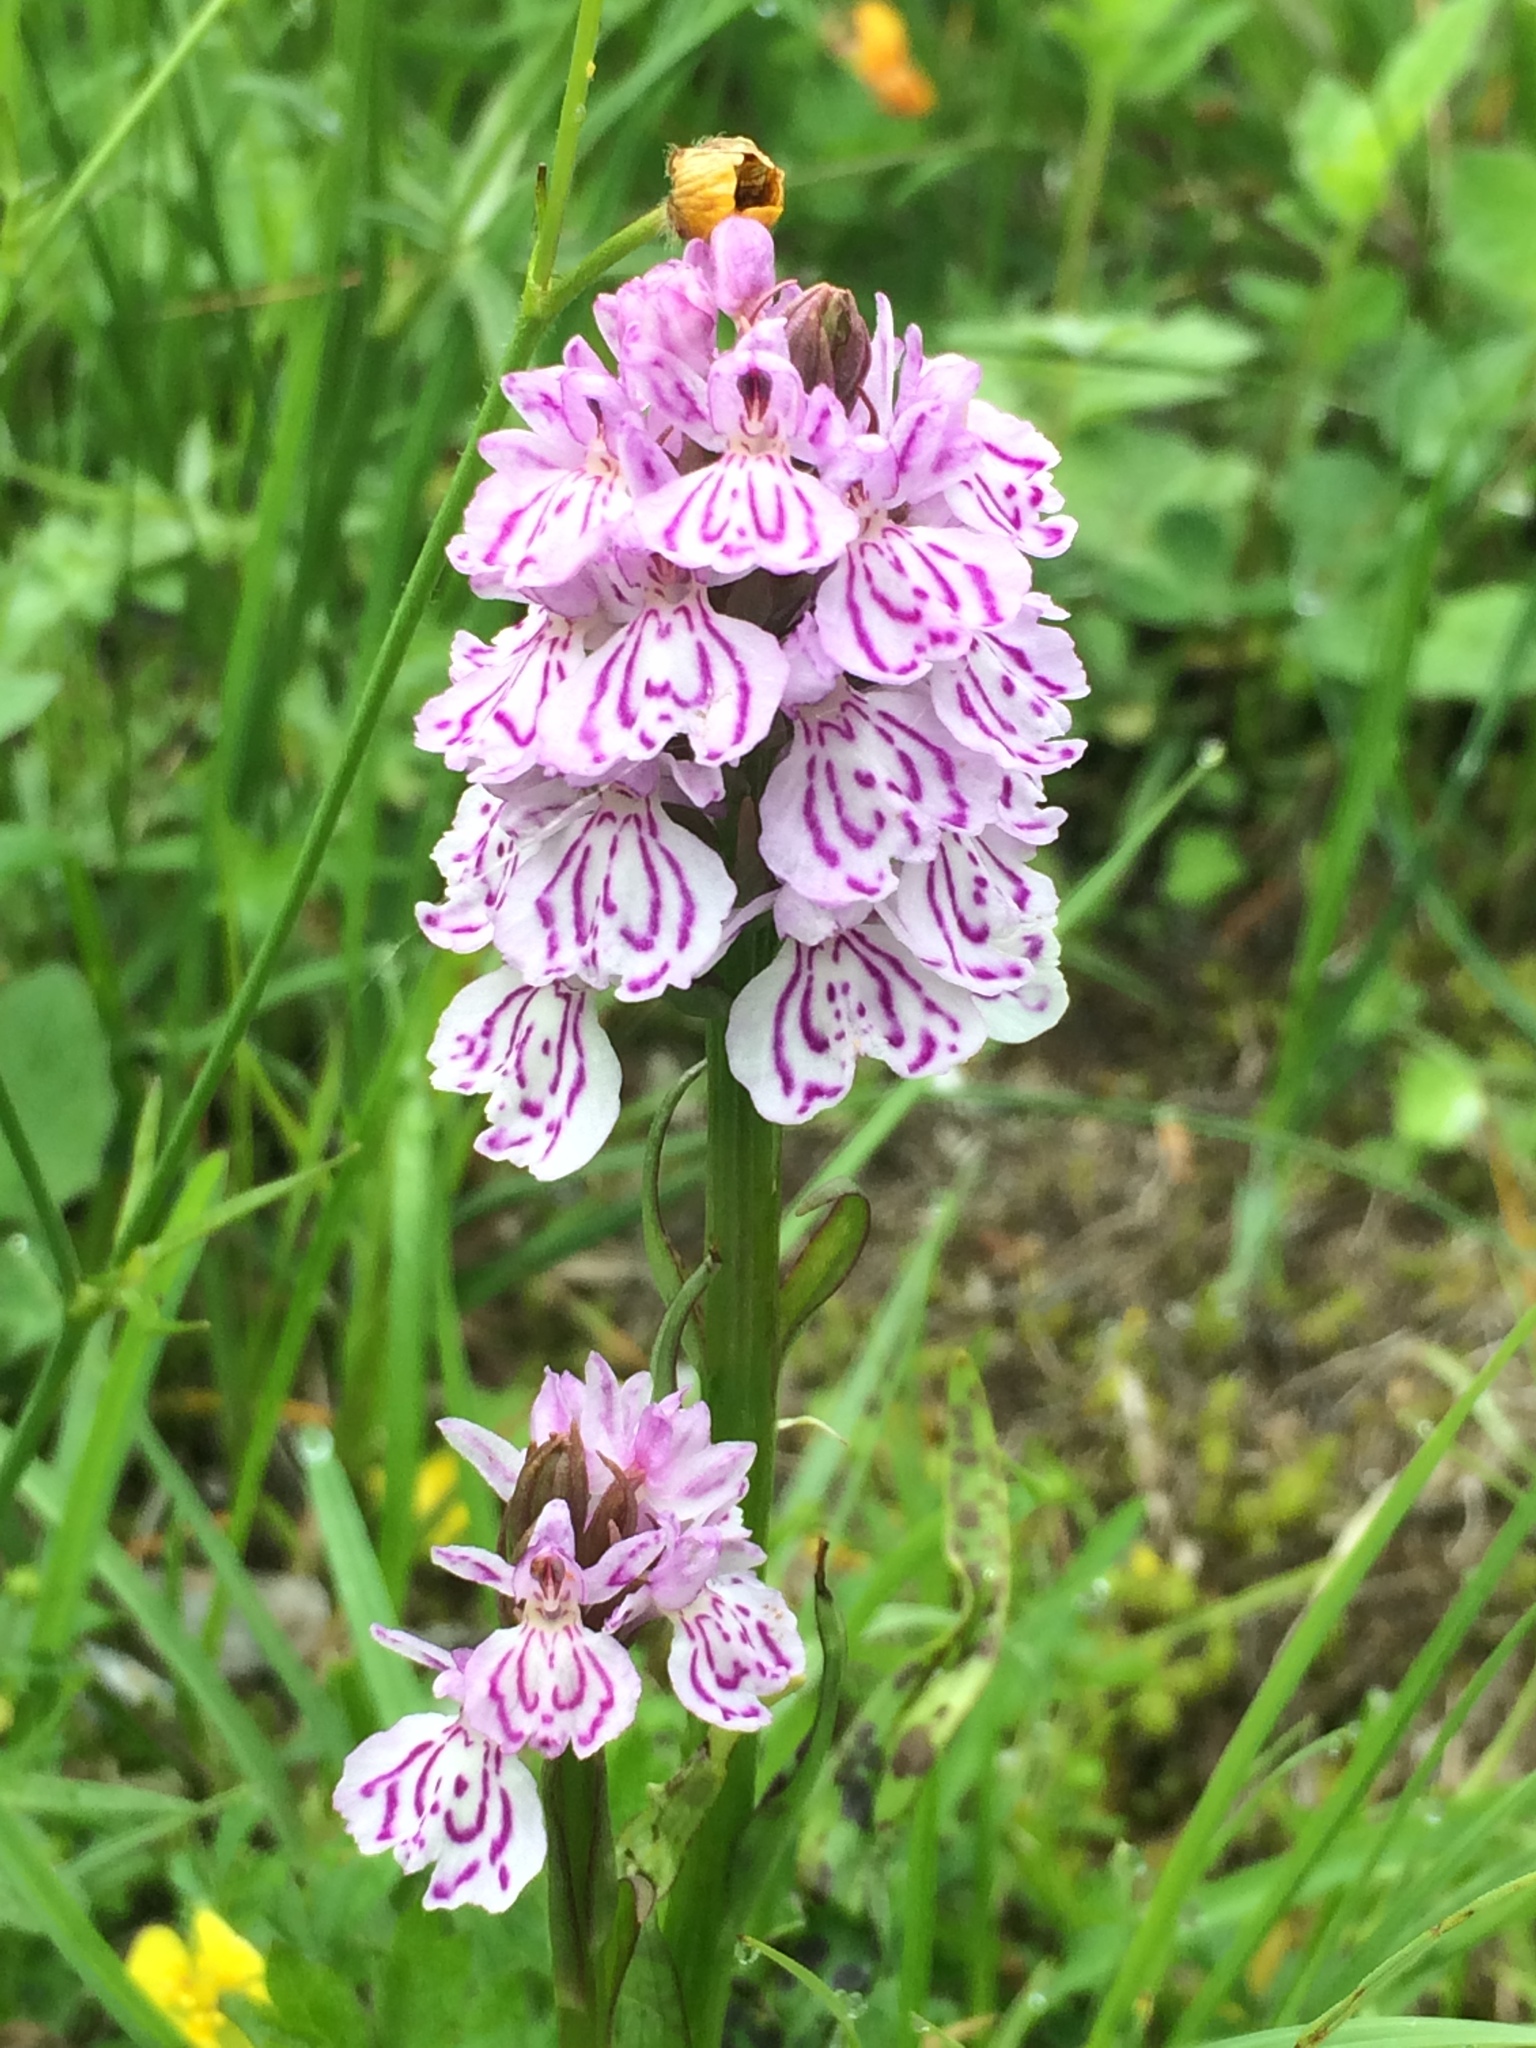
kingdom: Plantae
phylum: Tracheophyta
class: Liliopsida
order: Asparagales
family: Orchidaceae
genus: Dactylorhiza
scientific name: Dactylorhiza maculata
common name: Heath spotted-orchid
